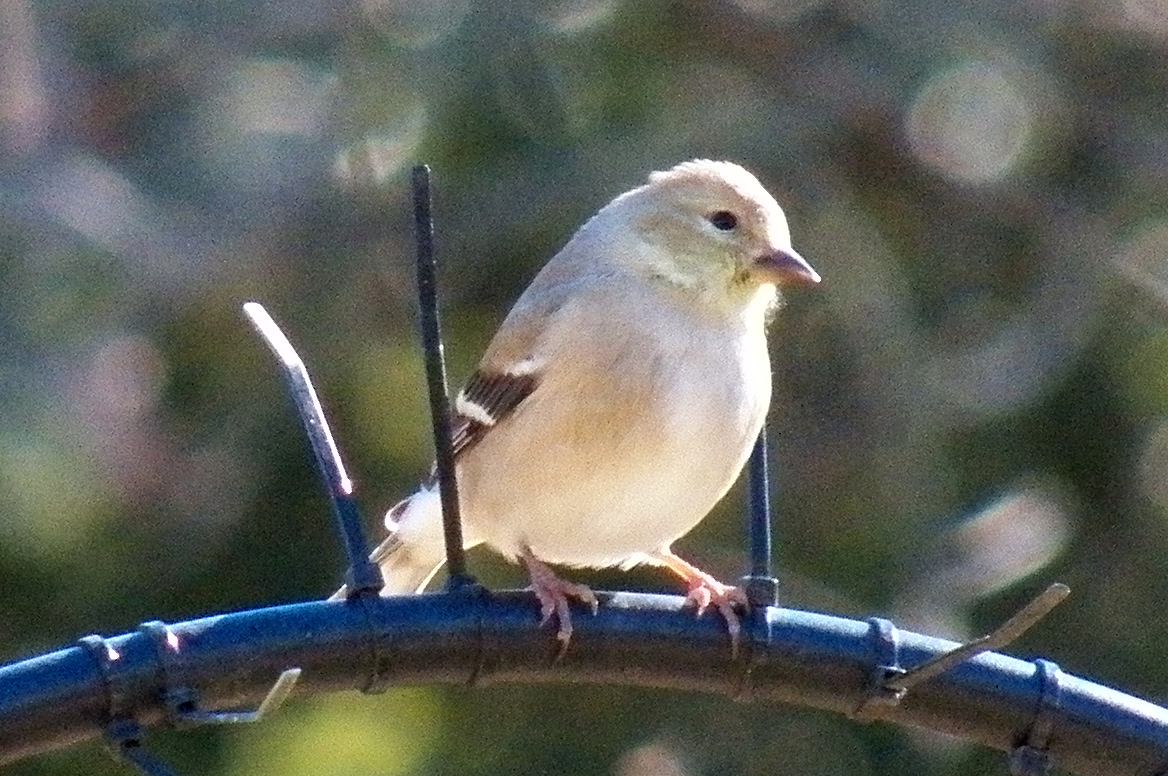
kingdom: Animalia
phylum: Chordata
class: Aves
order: Passeriformes
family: Fringillidae
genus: Spinus
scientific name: Spinus tristis
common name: American goldfinch
